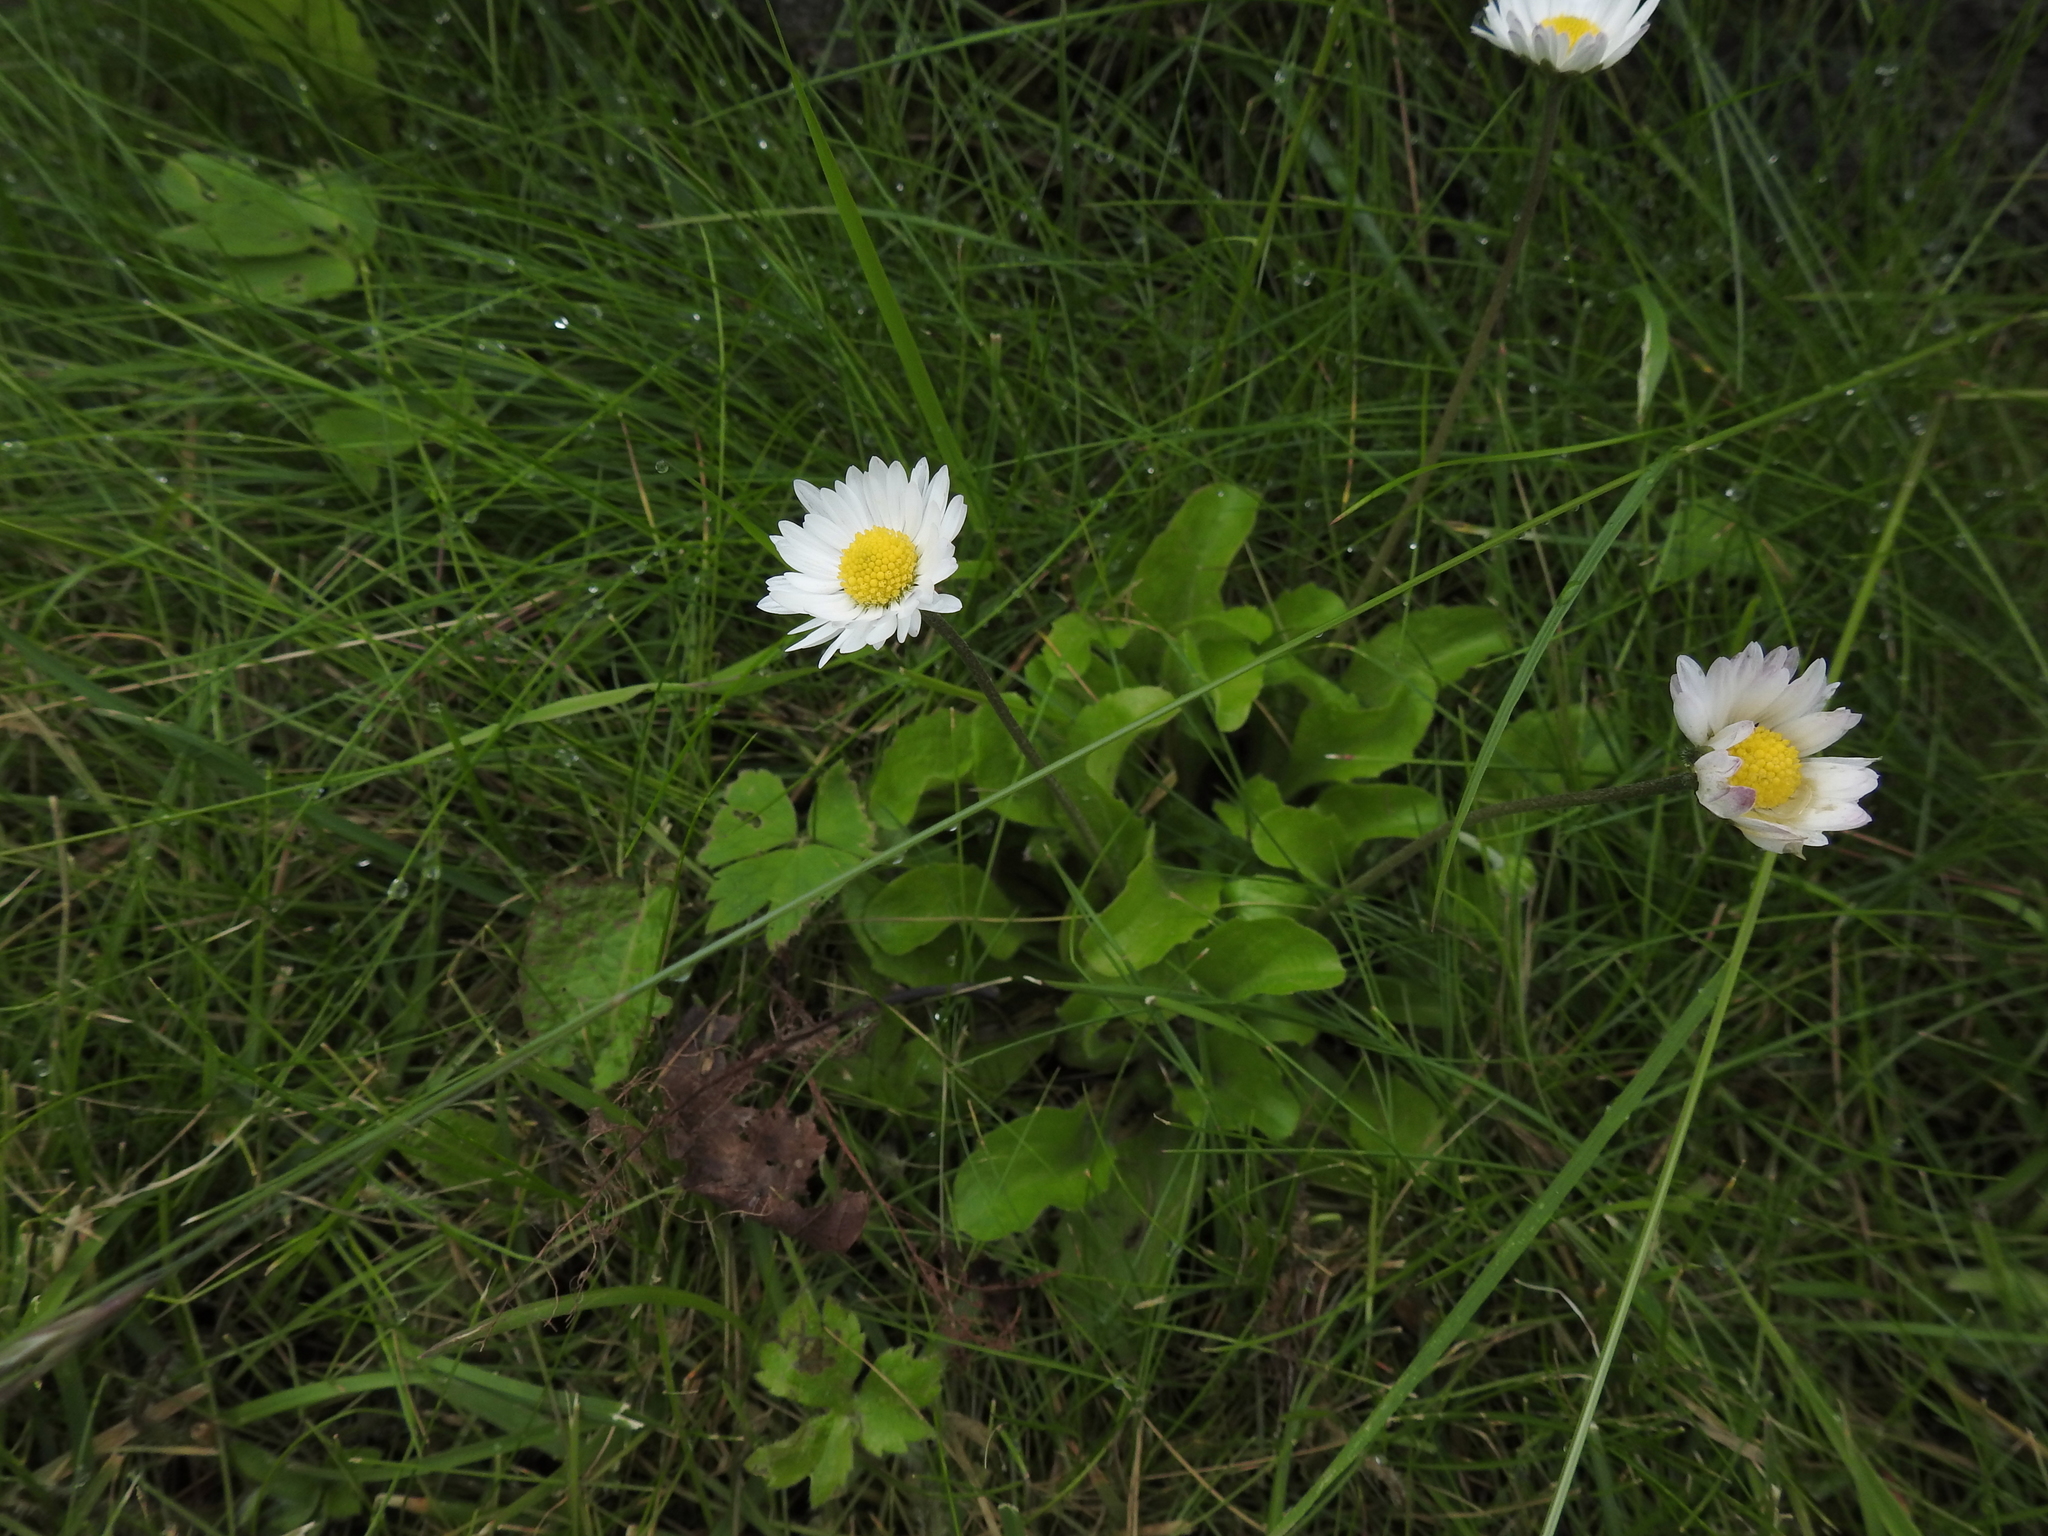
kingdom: Plantae
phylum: Tracheophyta
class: Magnoliopsida
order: Asterales
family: Asteraceae
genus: Bellis
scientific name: Bellis perennis
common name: Lawndaisy
